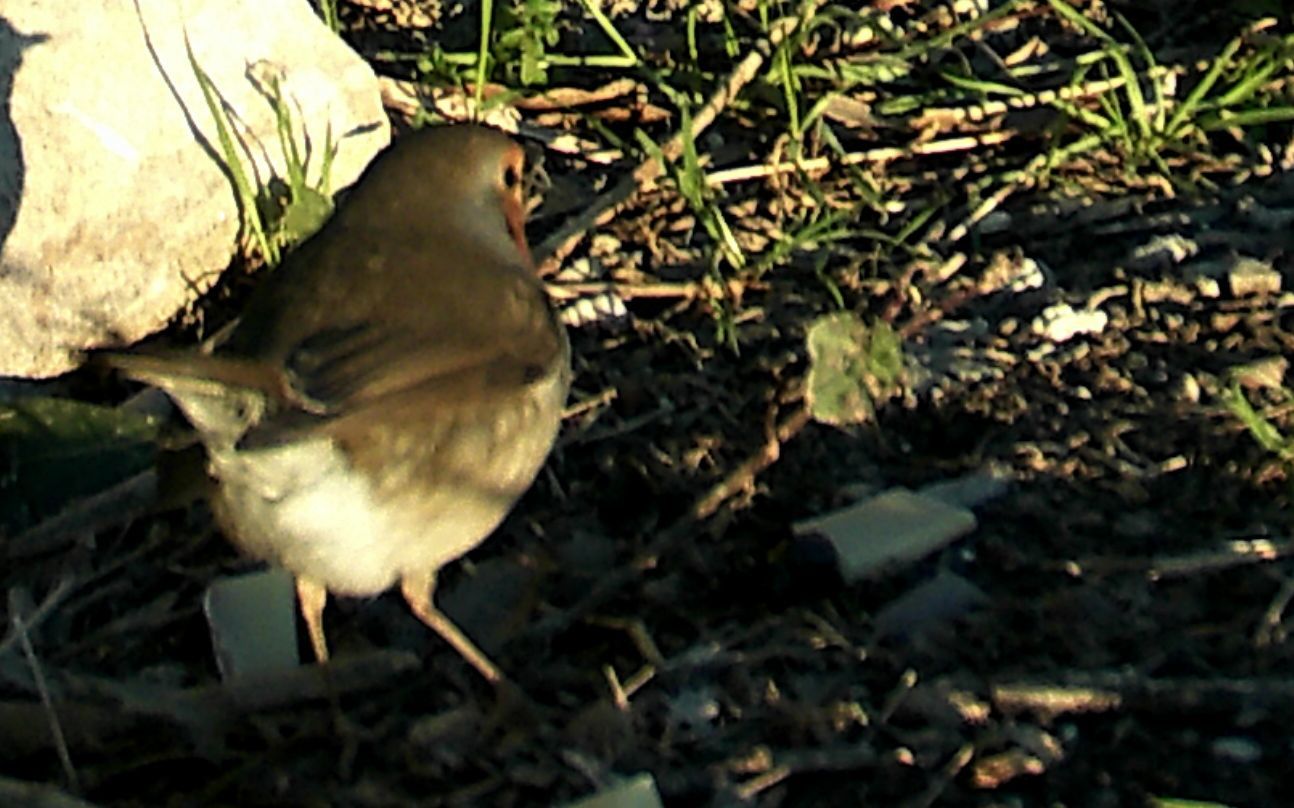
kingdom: Animalia
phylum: Chordata
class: Aves
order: Passeriformes
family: Muscicapidae
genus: Erithacus
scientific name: Erithacus rubecula
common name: European robin
